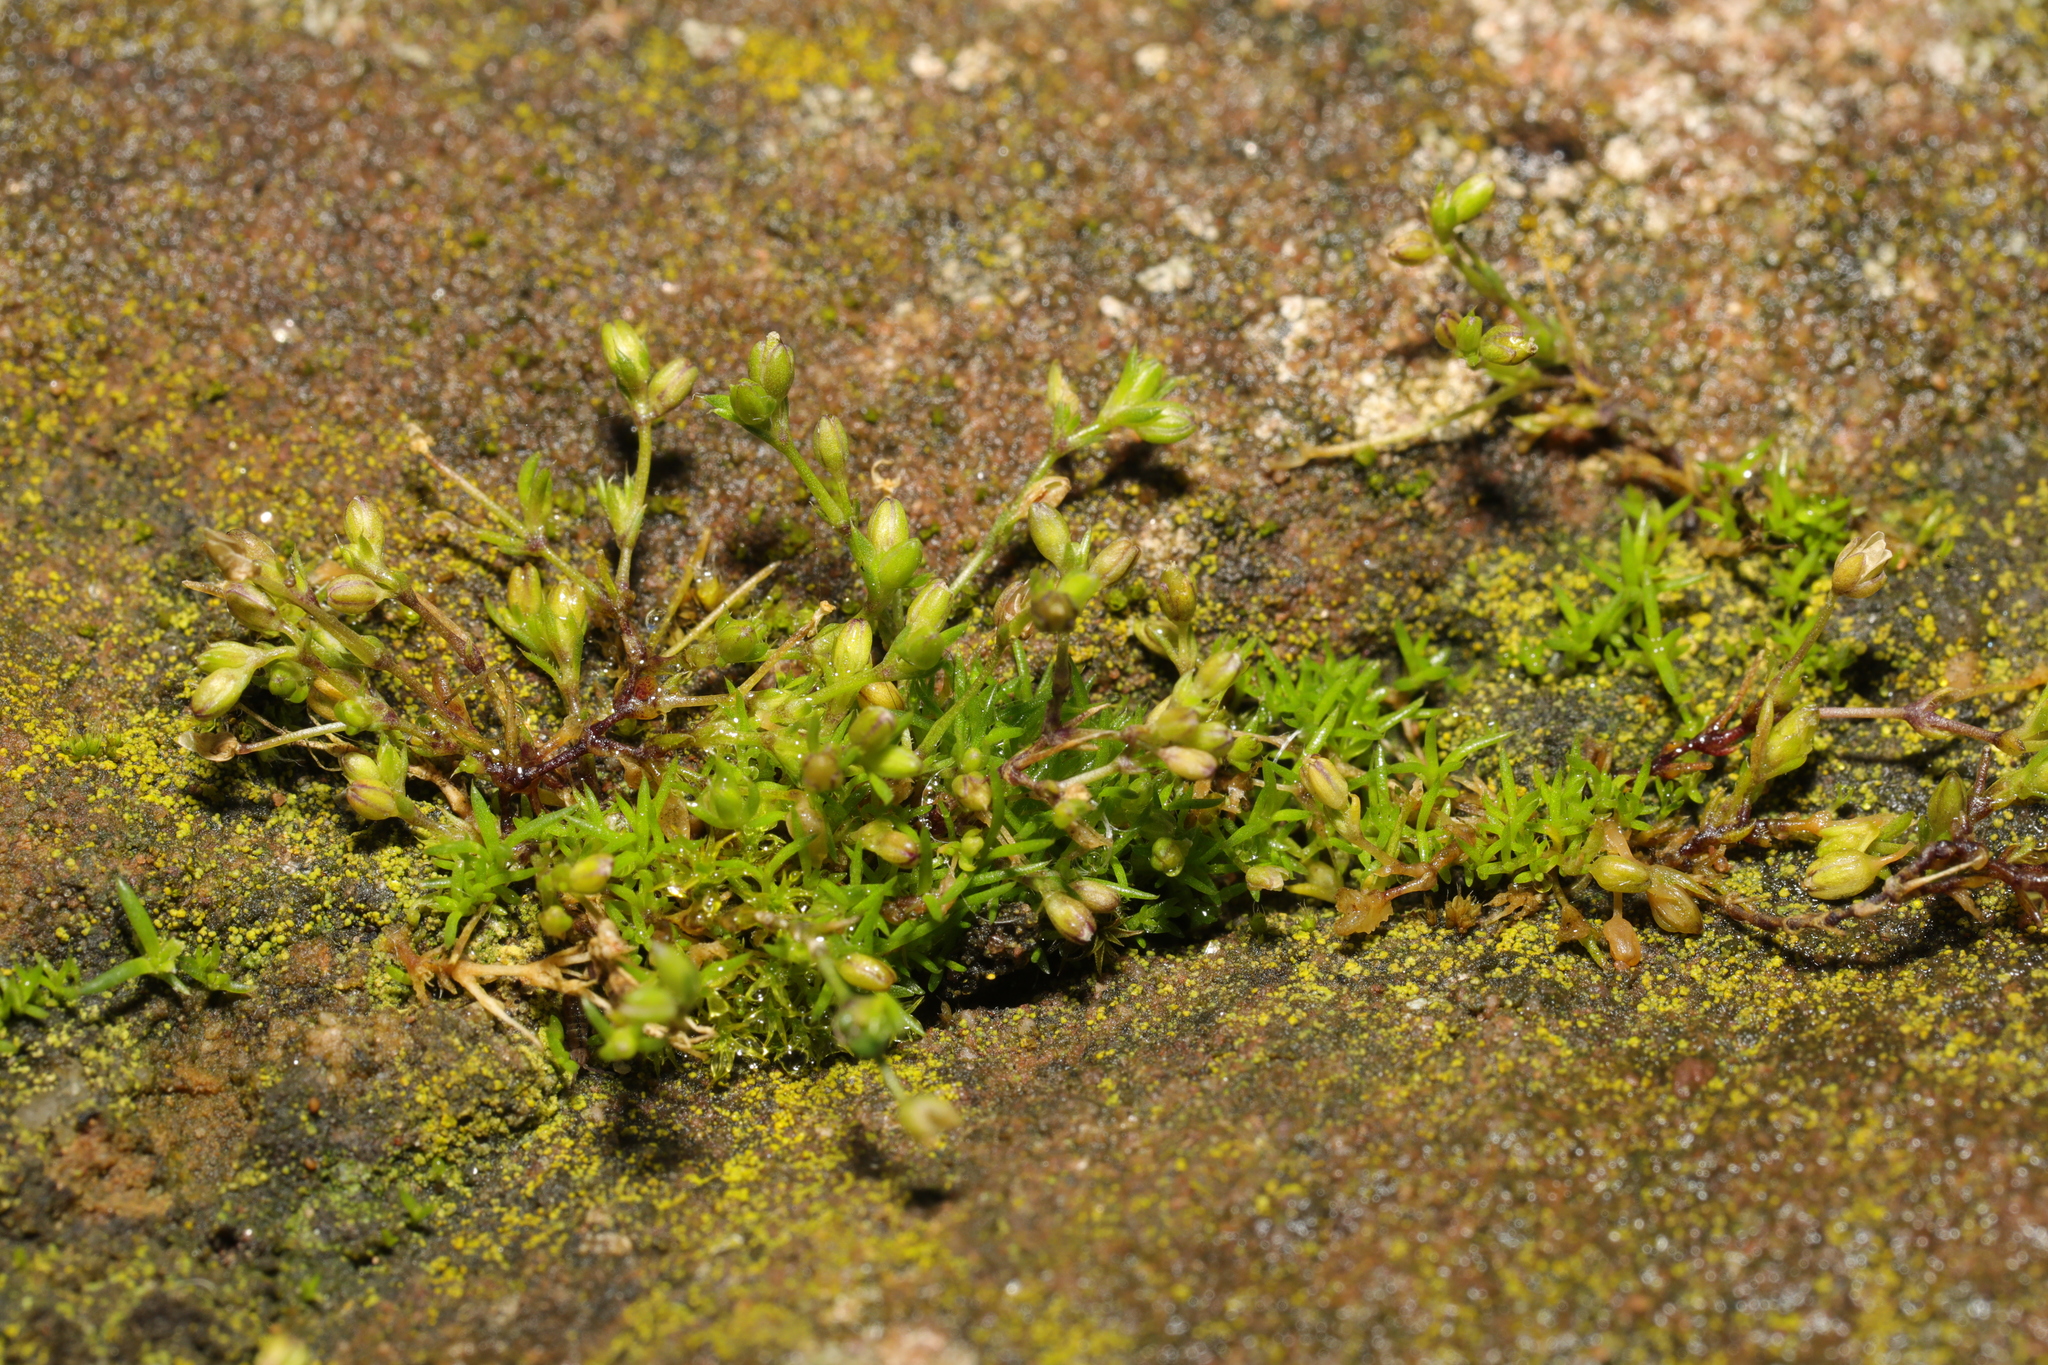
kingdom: Plantae
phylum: Tracheophyta
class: Magnoliopsida
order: Caryophyllales
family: Caryophyllaceae
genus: Sagina
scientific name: Sagina procumbens
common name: Procumbent pearlwort
